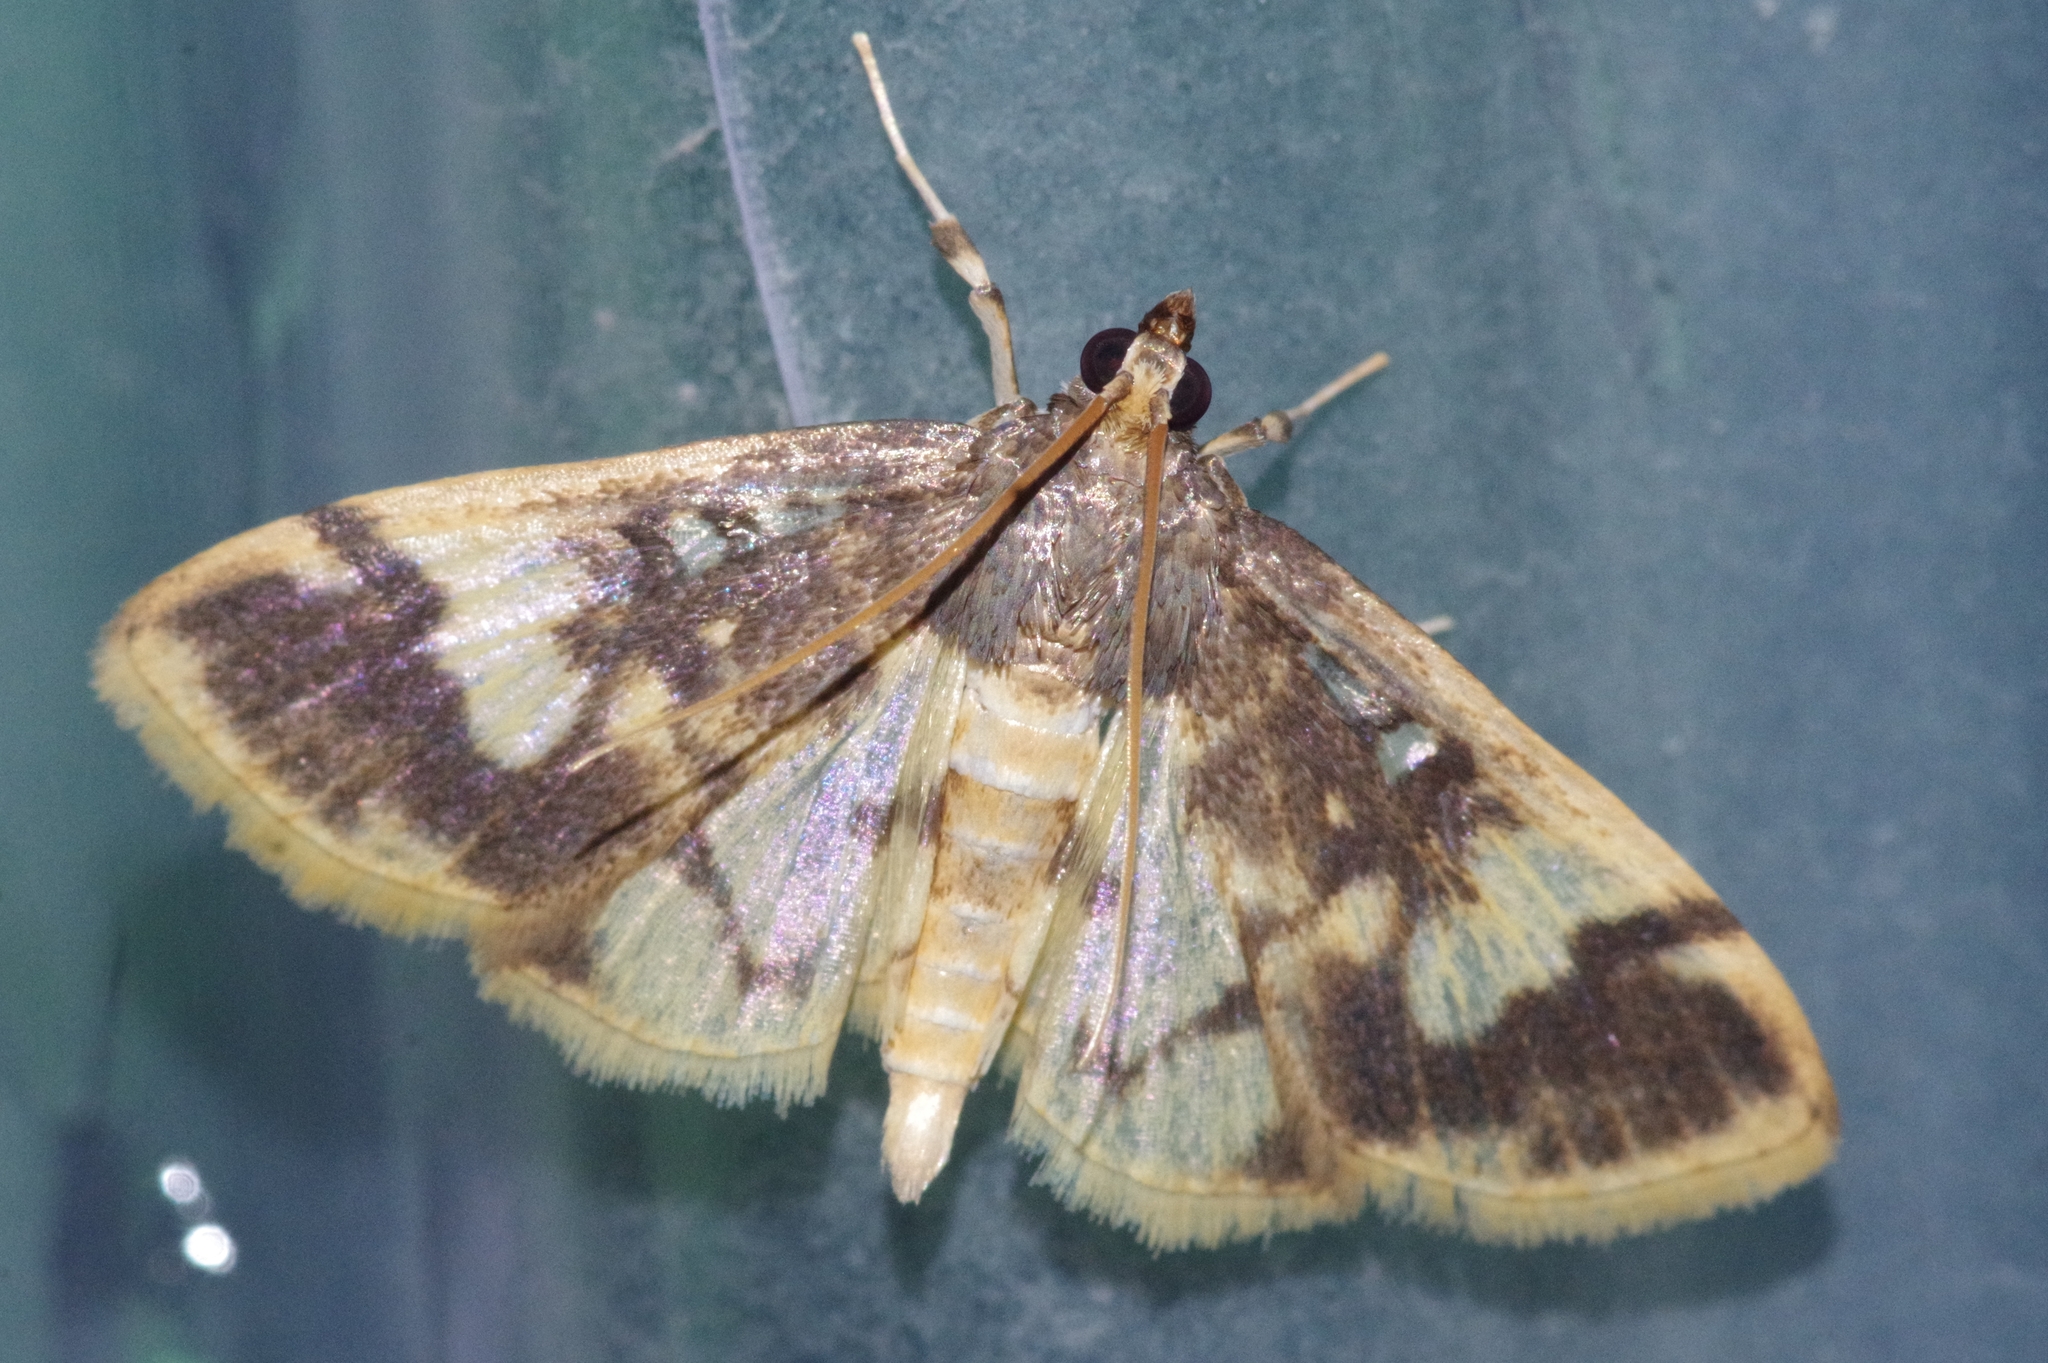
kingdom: Animalia
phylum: Arthropoda
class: Insecta
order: Lepidoptera
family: Crambidae
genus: Pseudebulea
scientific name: Pseudebulea fentoni
